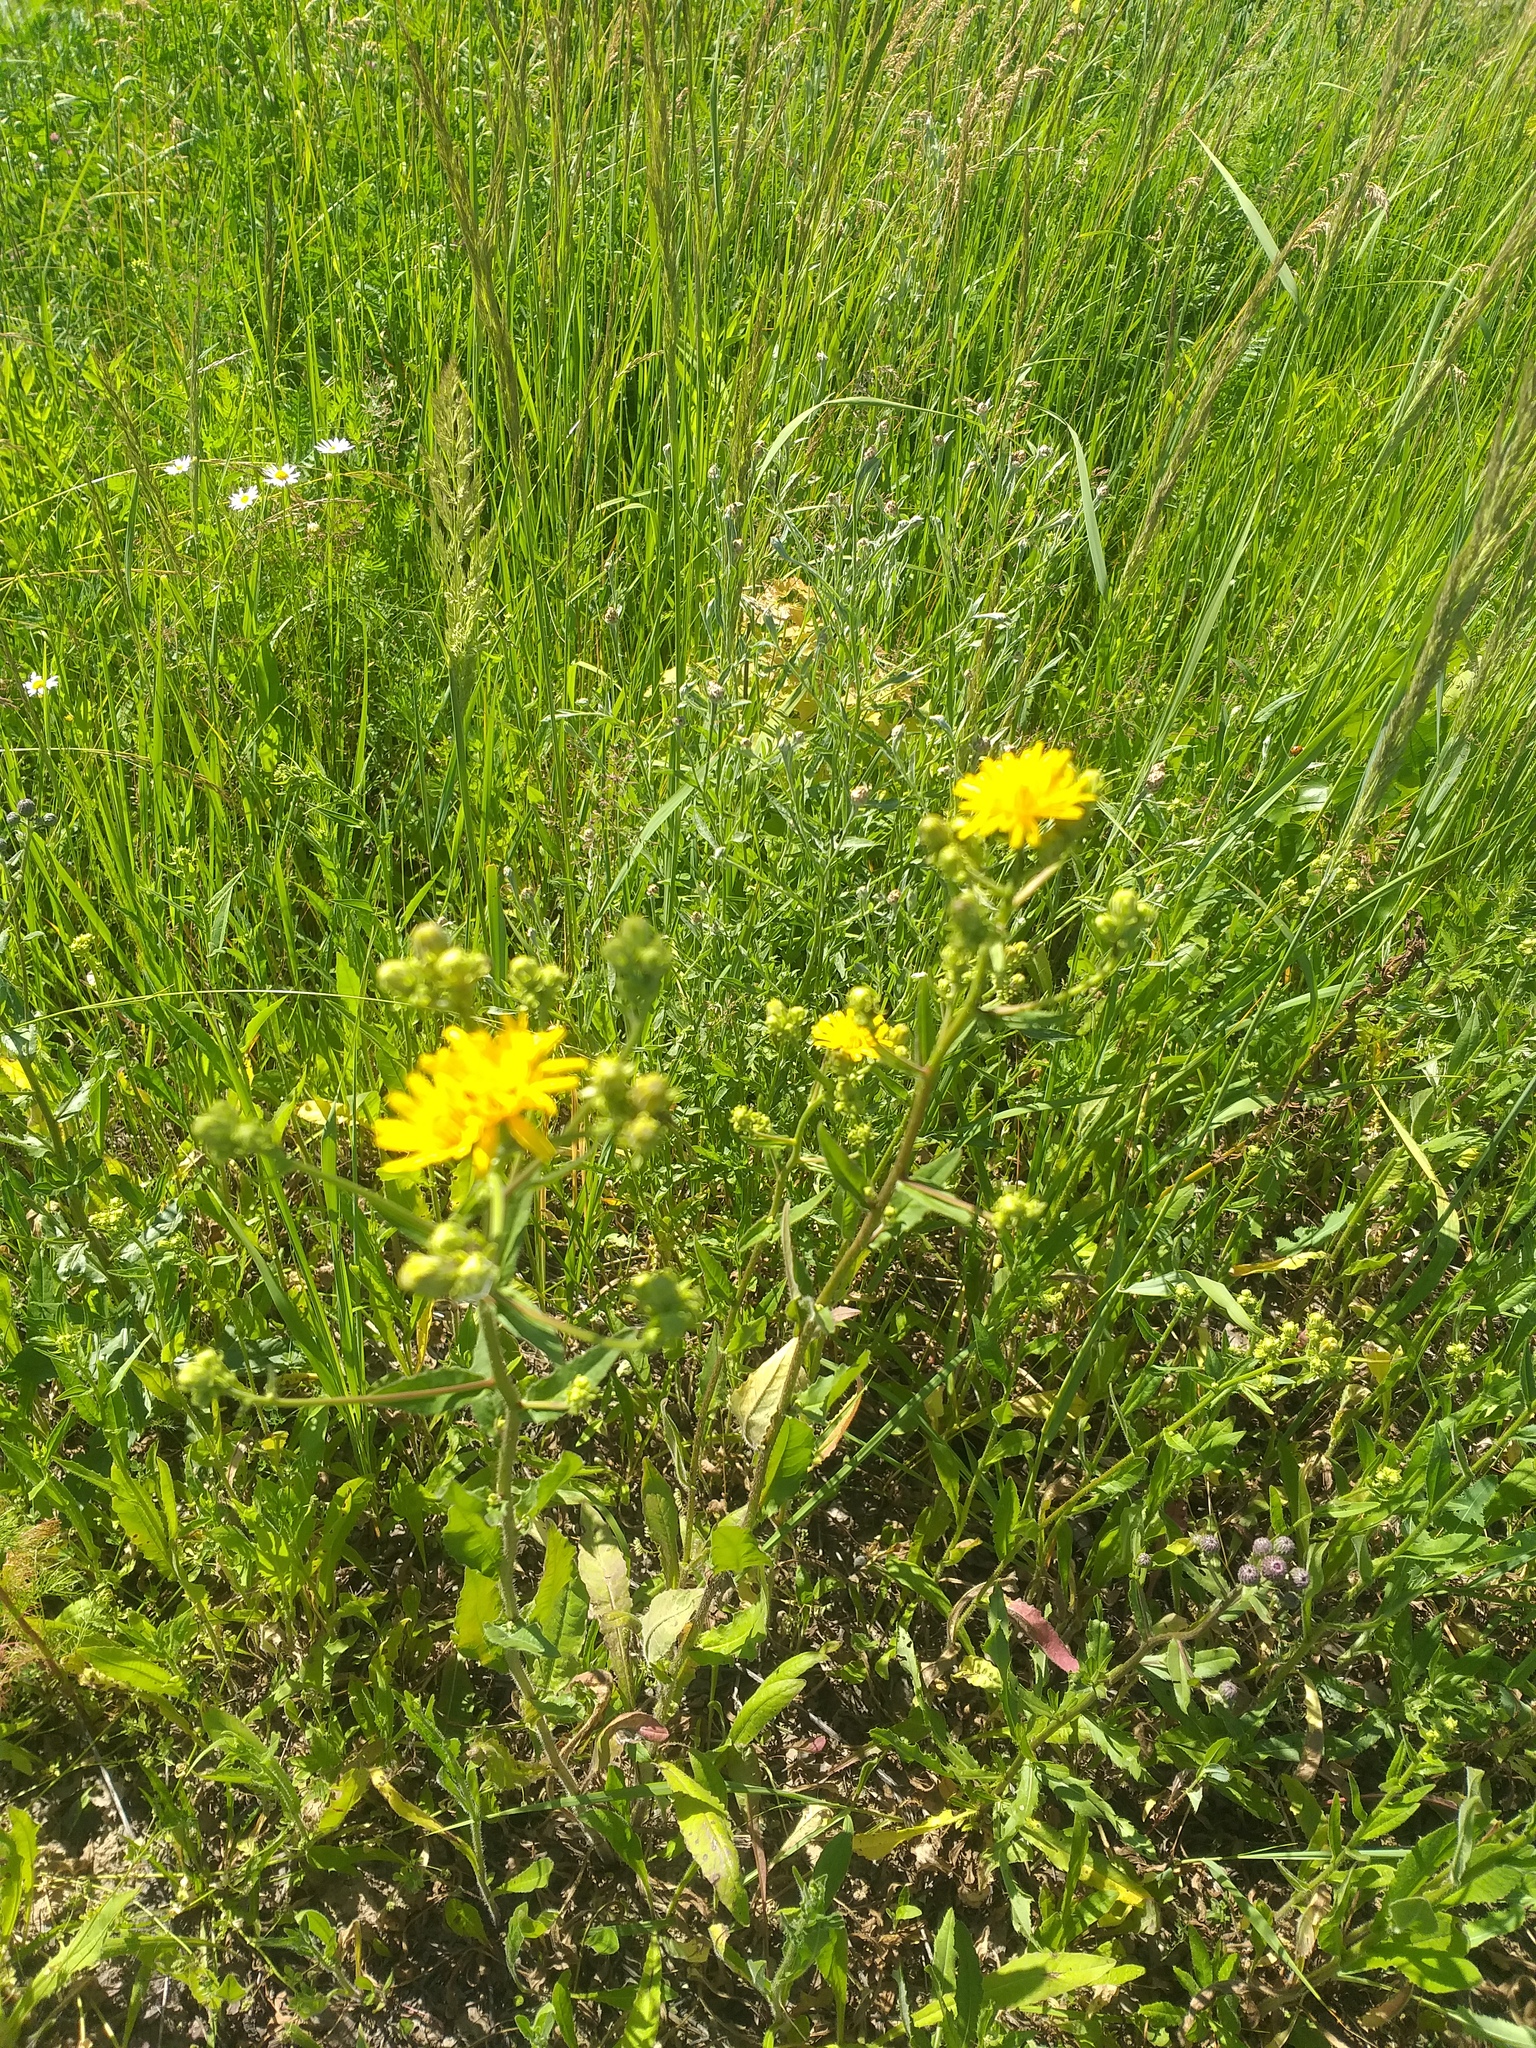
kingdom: Plantae
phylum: Tracheophyta
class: Magnoliopsida
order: Asterales
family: Asteraceae
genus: Picris
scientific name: Picris hieracioides
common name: Hawkweed oxtongue
